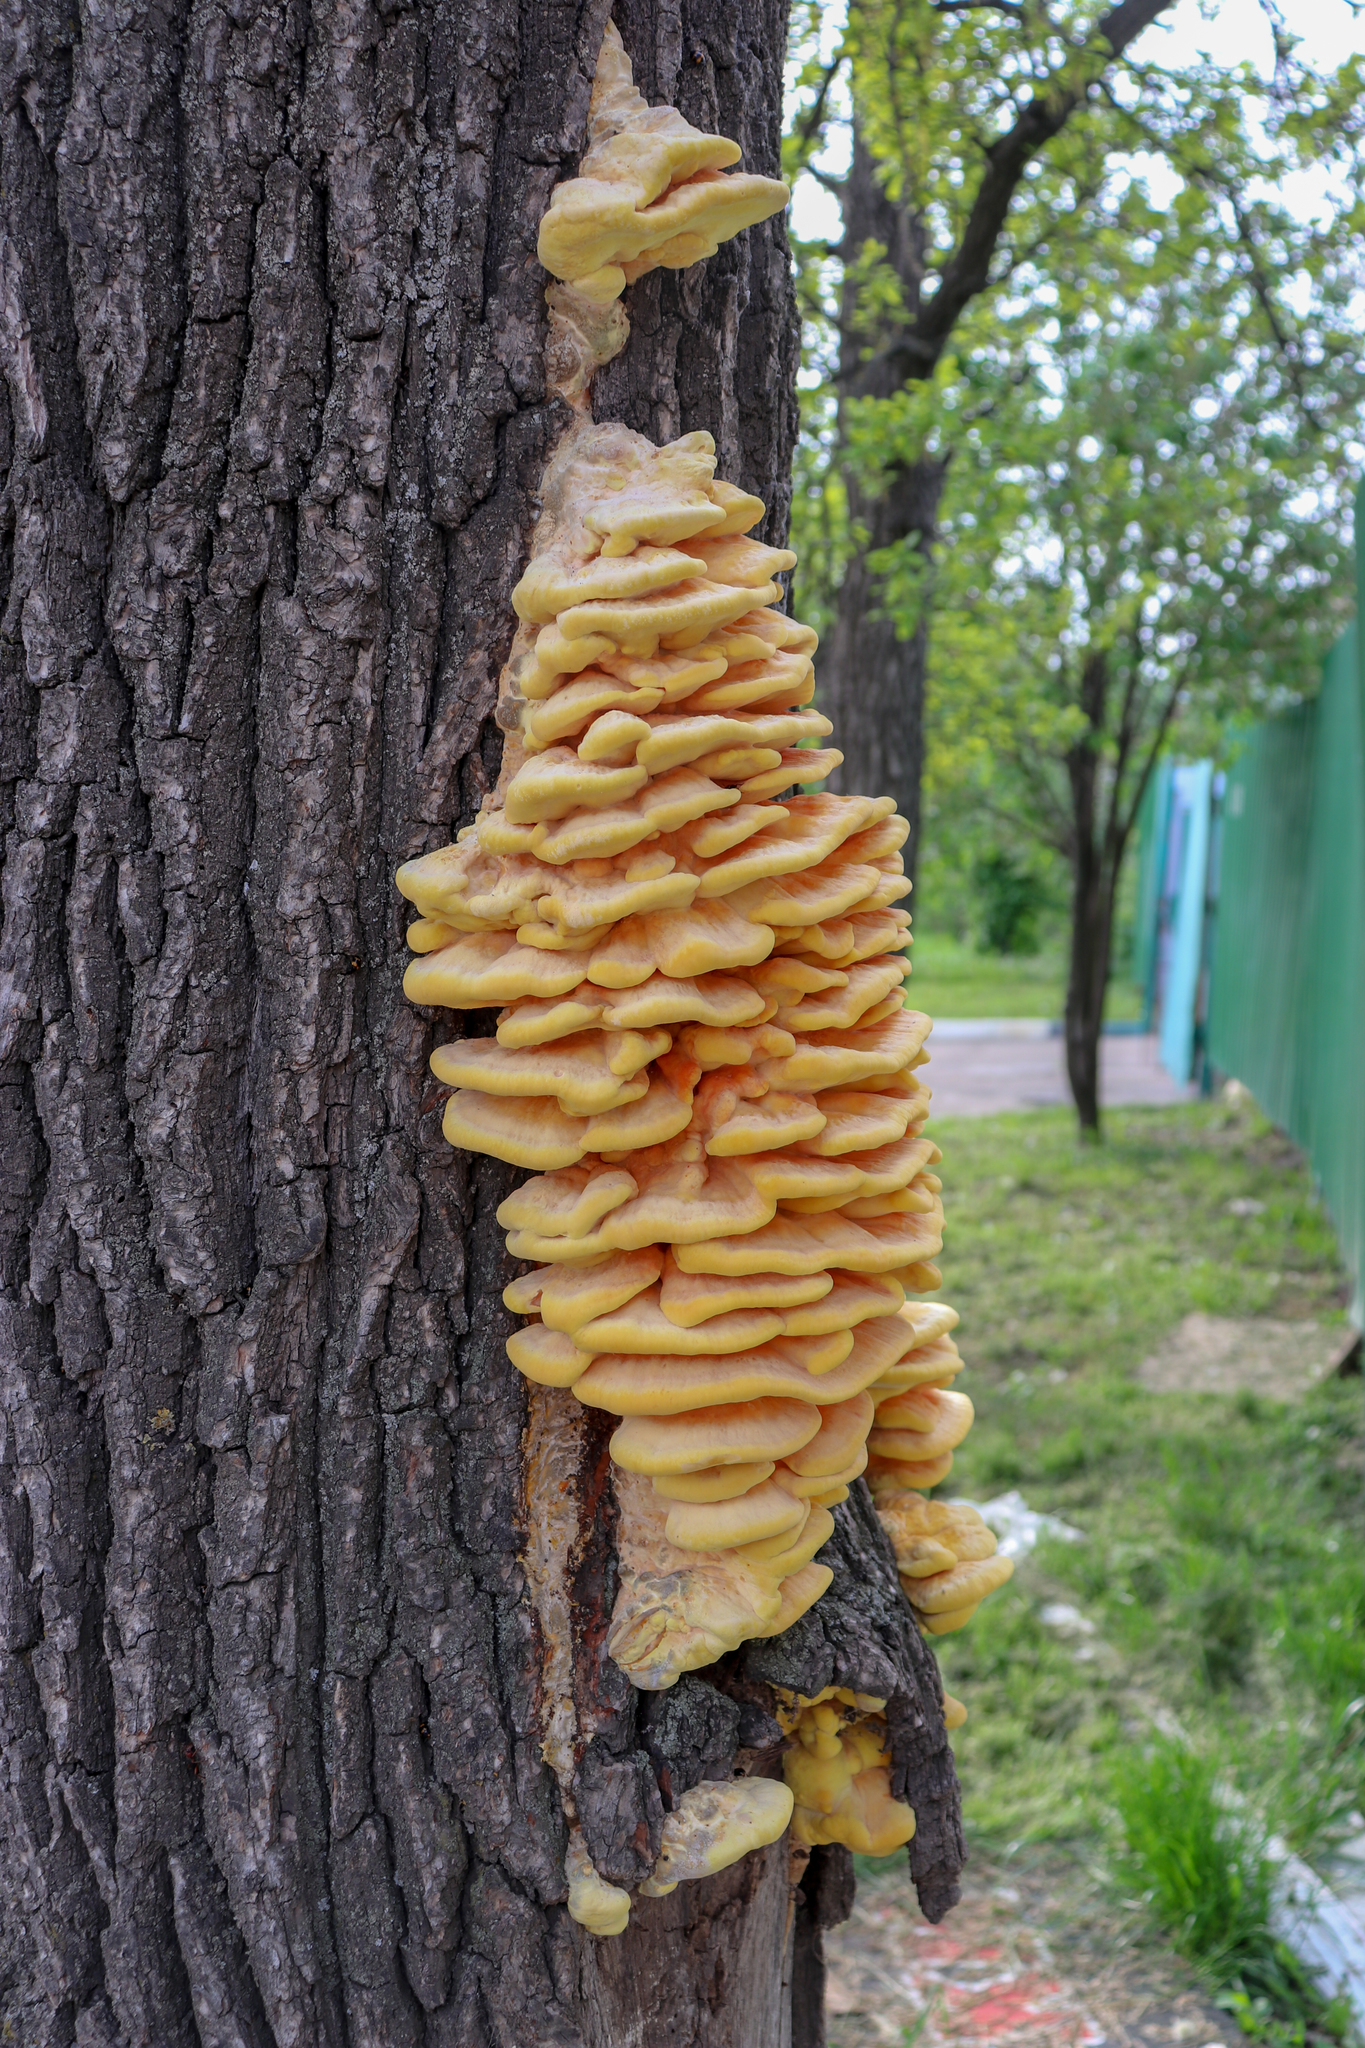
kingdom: Fungi
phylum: Basidiomycota
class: Agaricomycetes
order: Polyporales
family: Laetiporaceae
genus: Laetiporus
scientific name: Laetiporus sulphureus
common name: Chicken of the woods
